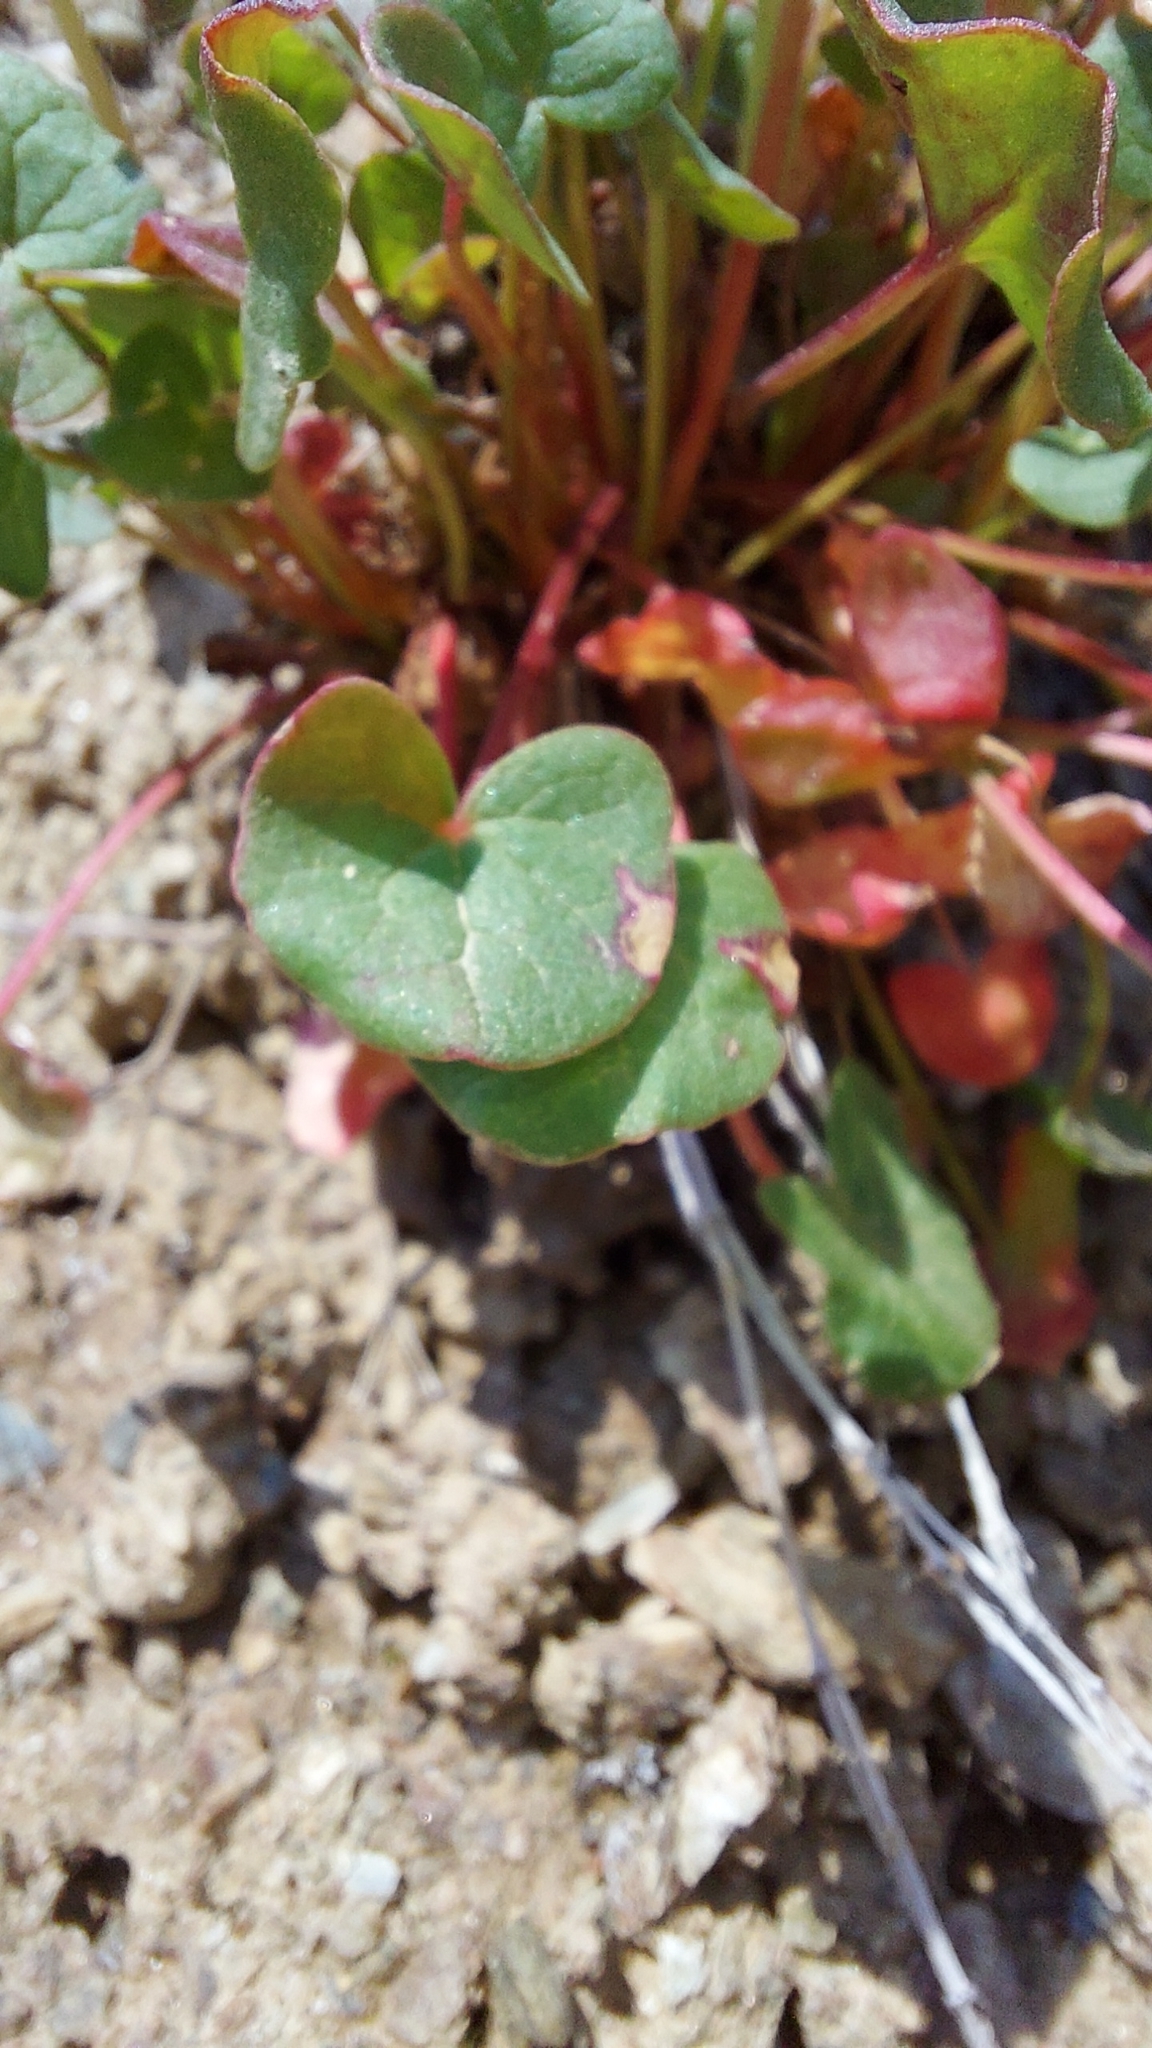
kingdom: Plantae
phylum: Tracheophyta
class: Magnoliopsida
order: Caryophyllales
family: Polygonaceae
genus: Oxyria
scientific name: Oxyria digyna
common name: Alpine mountain-sorrel
